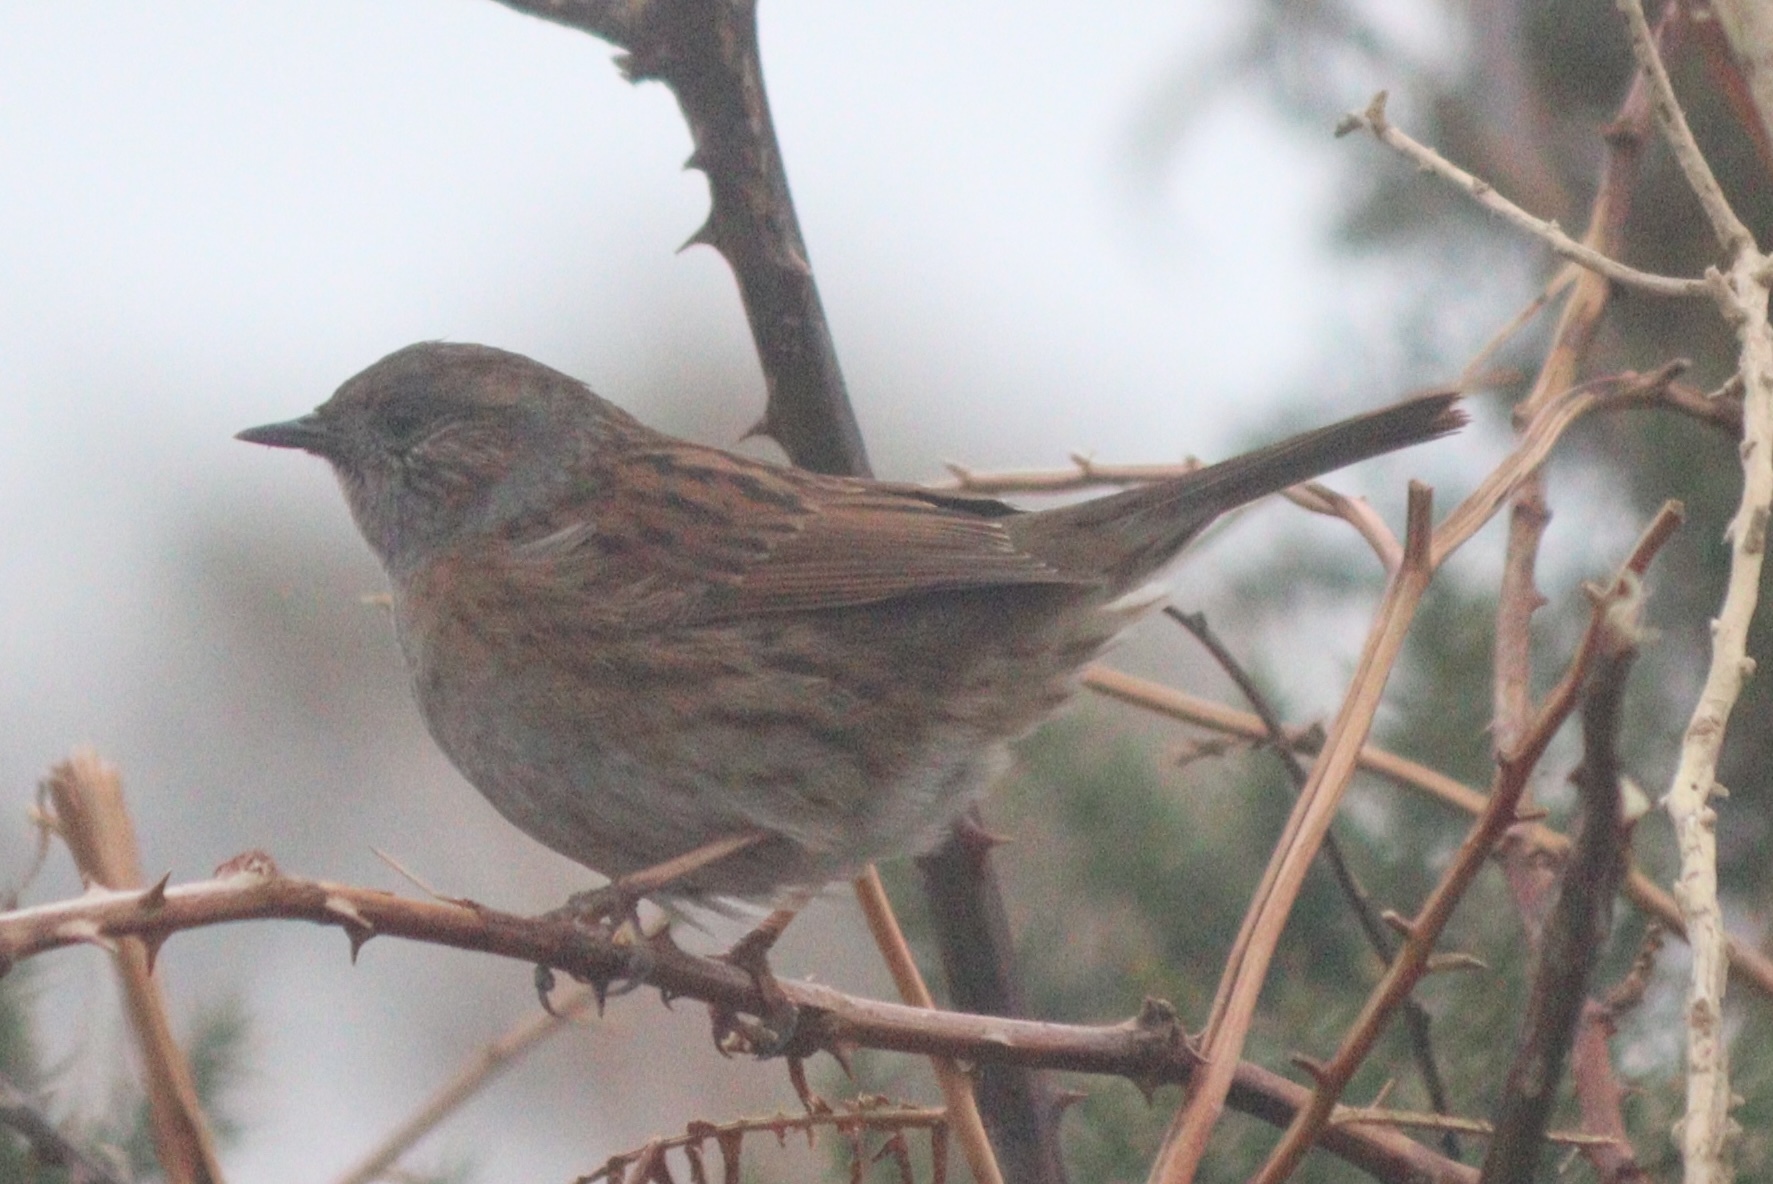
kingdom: Animalia
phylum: Chordata
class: Aves
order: Passeriformes
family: Prunellidae
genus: Prunella
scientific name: Prunella modularis
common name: Dunnock
